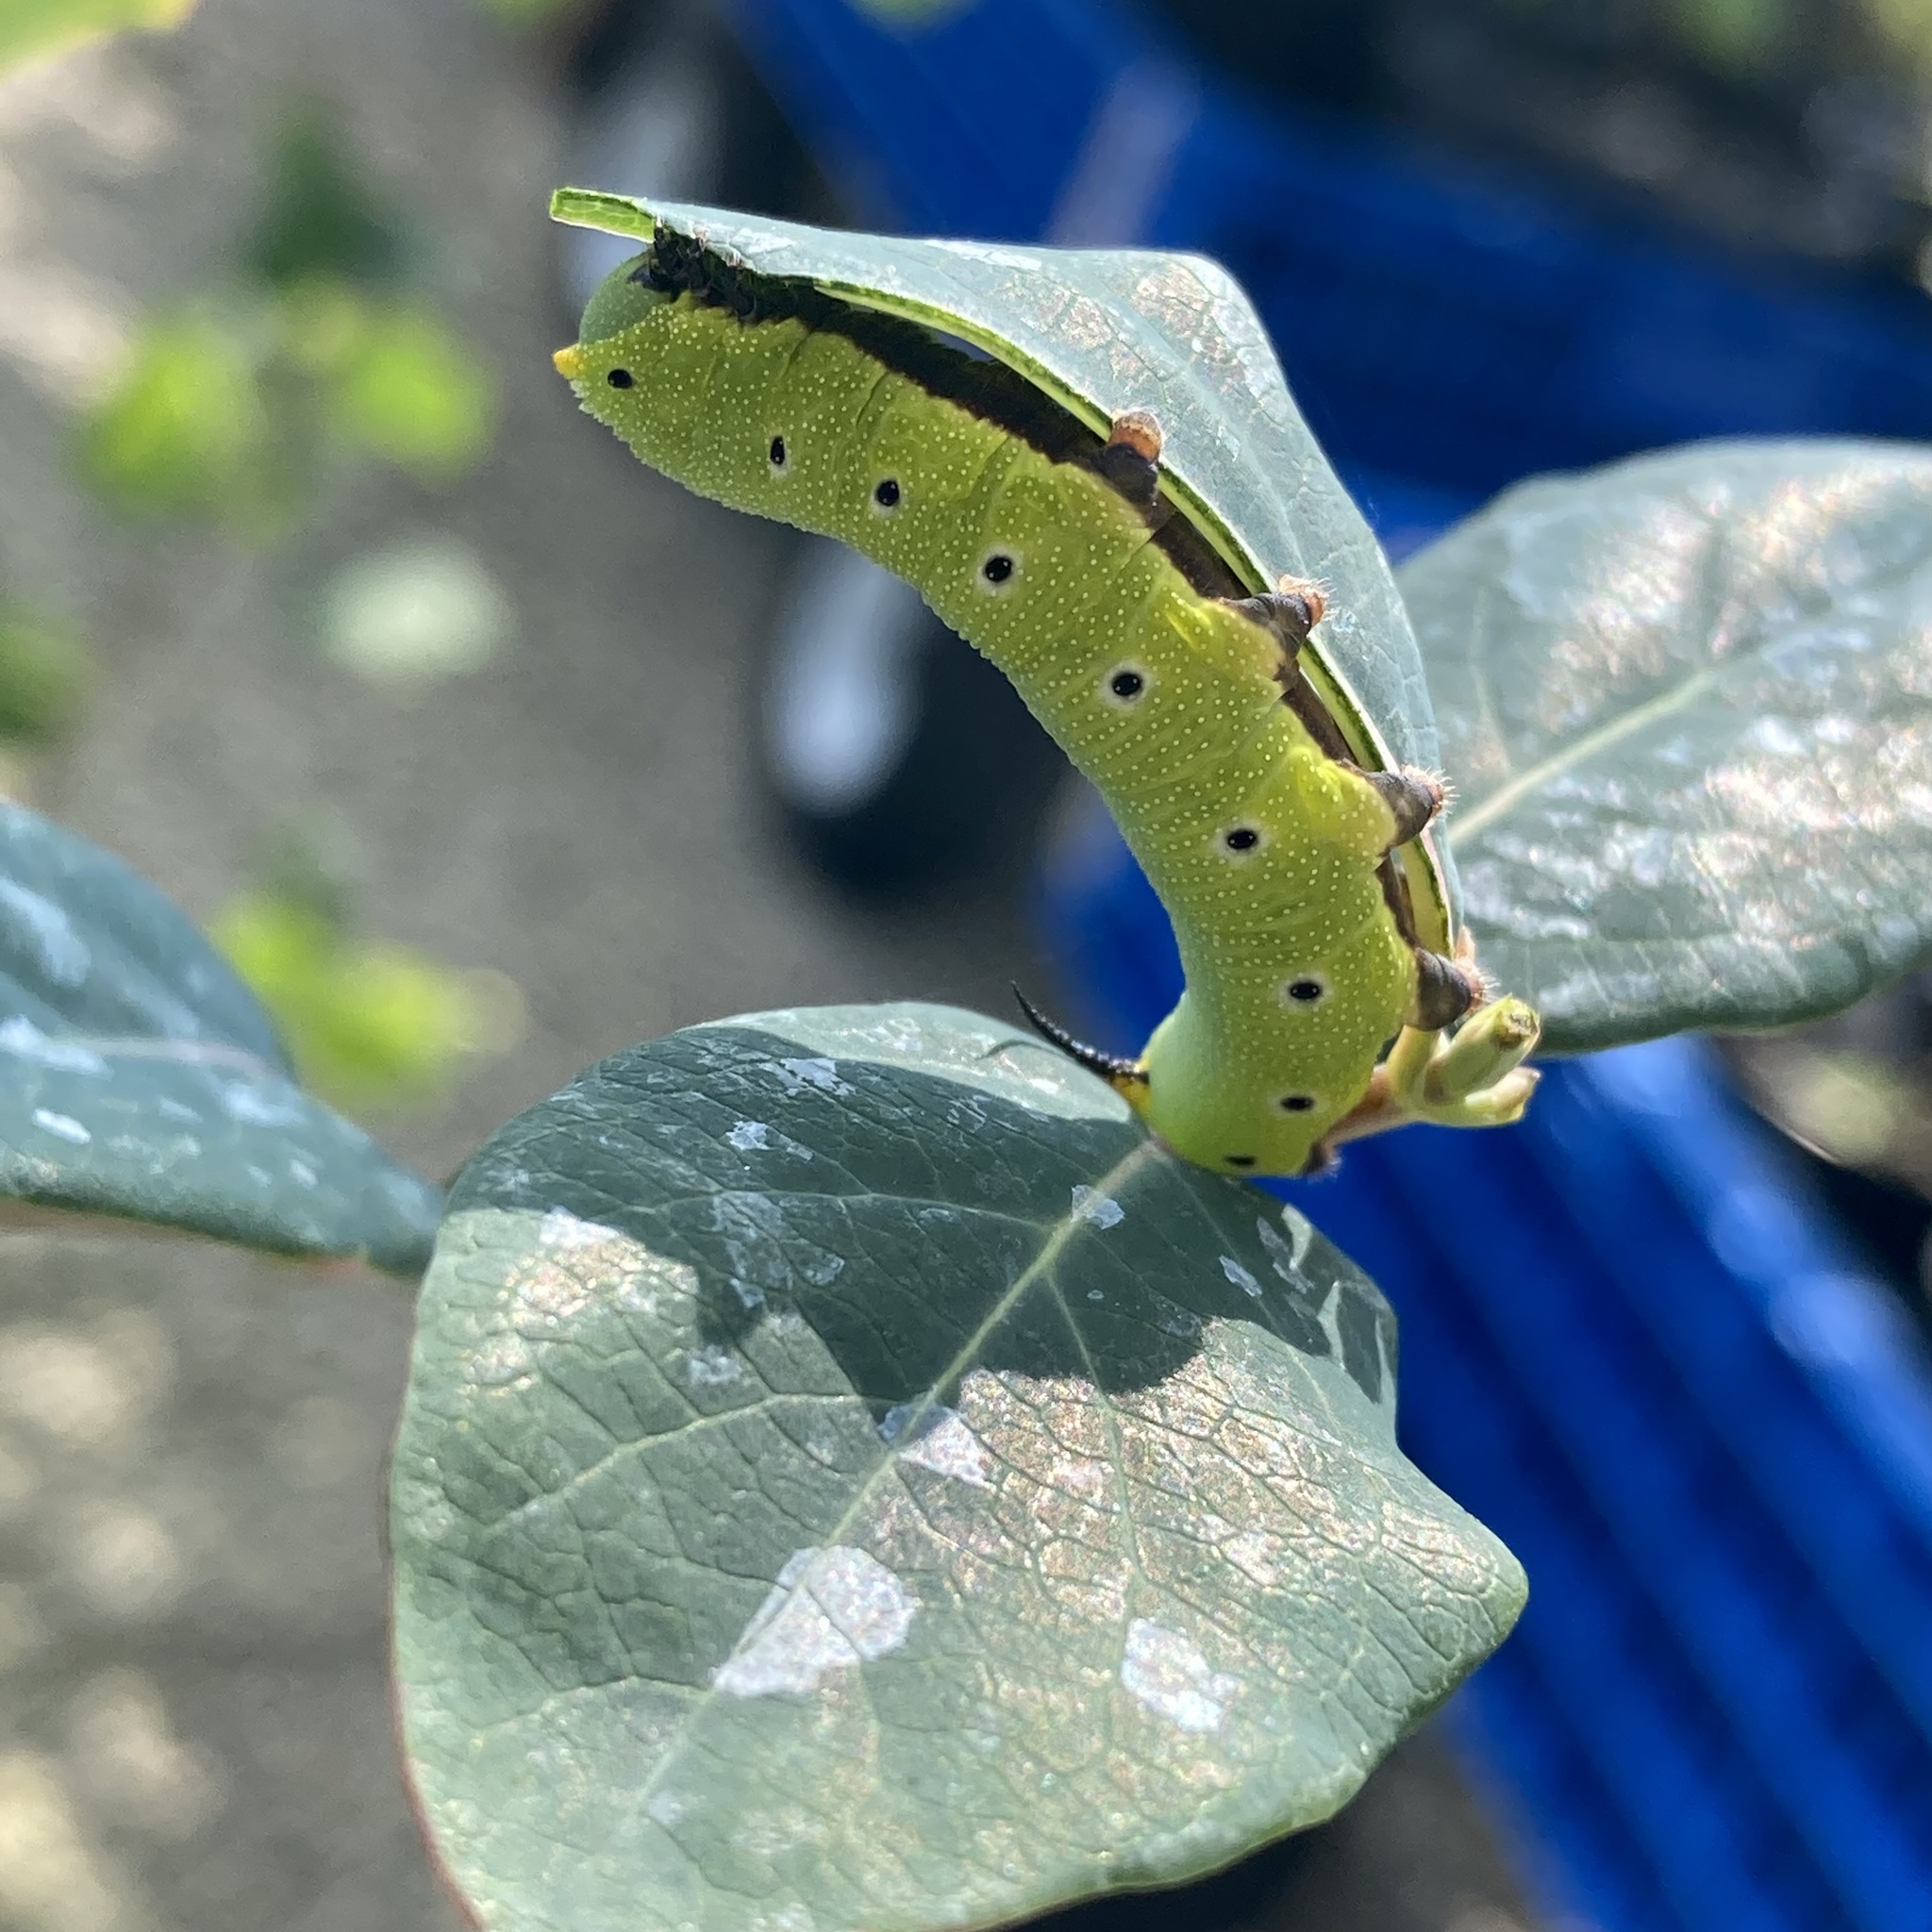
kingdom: Animalia
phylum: Arthropoda
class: Insecta
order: Lepidoptera
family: Sphingidae
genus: Hemaris
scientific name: Hemaris diffinis
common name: Bumblebee moth
